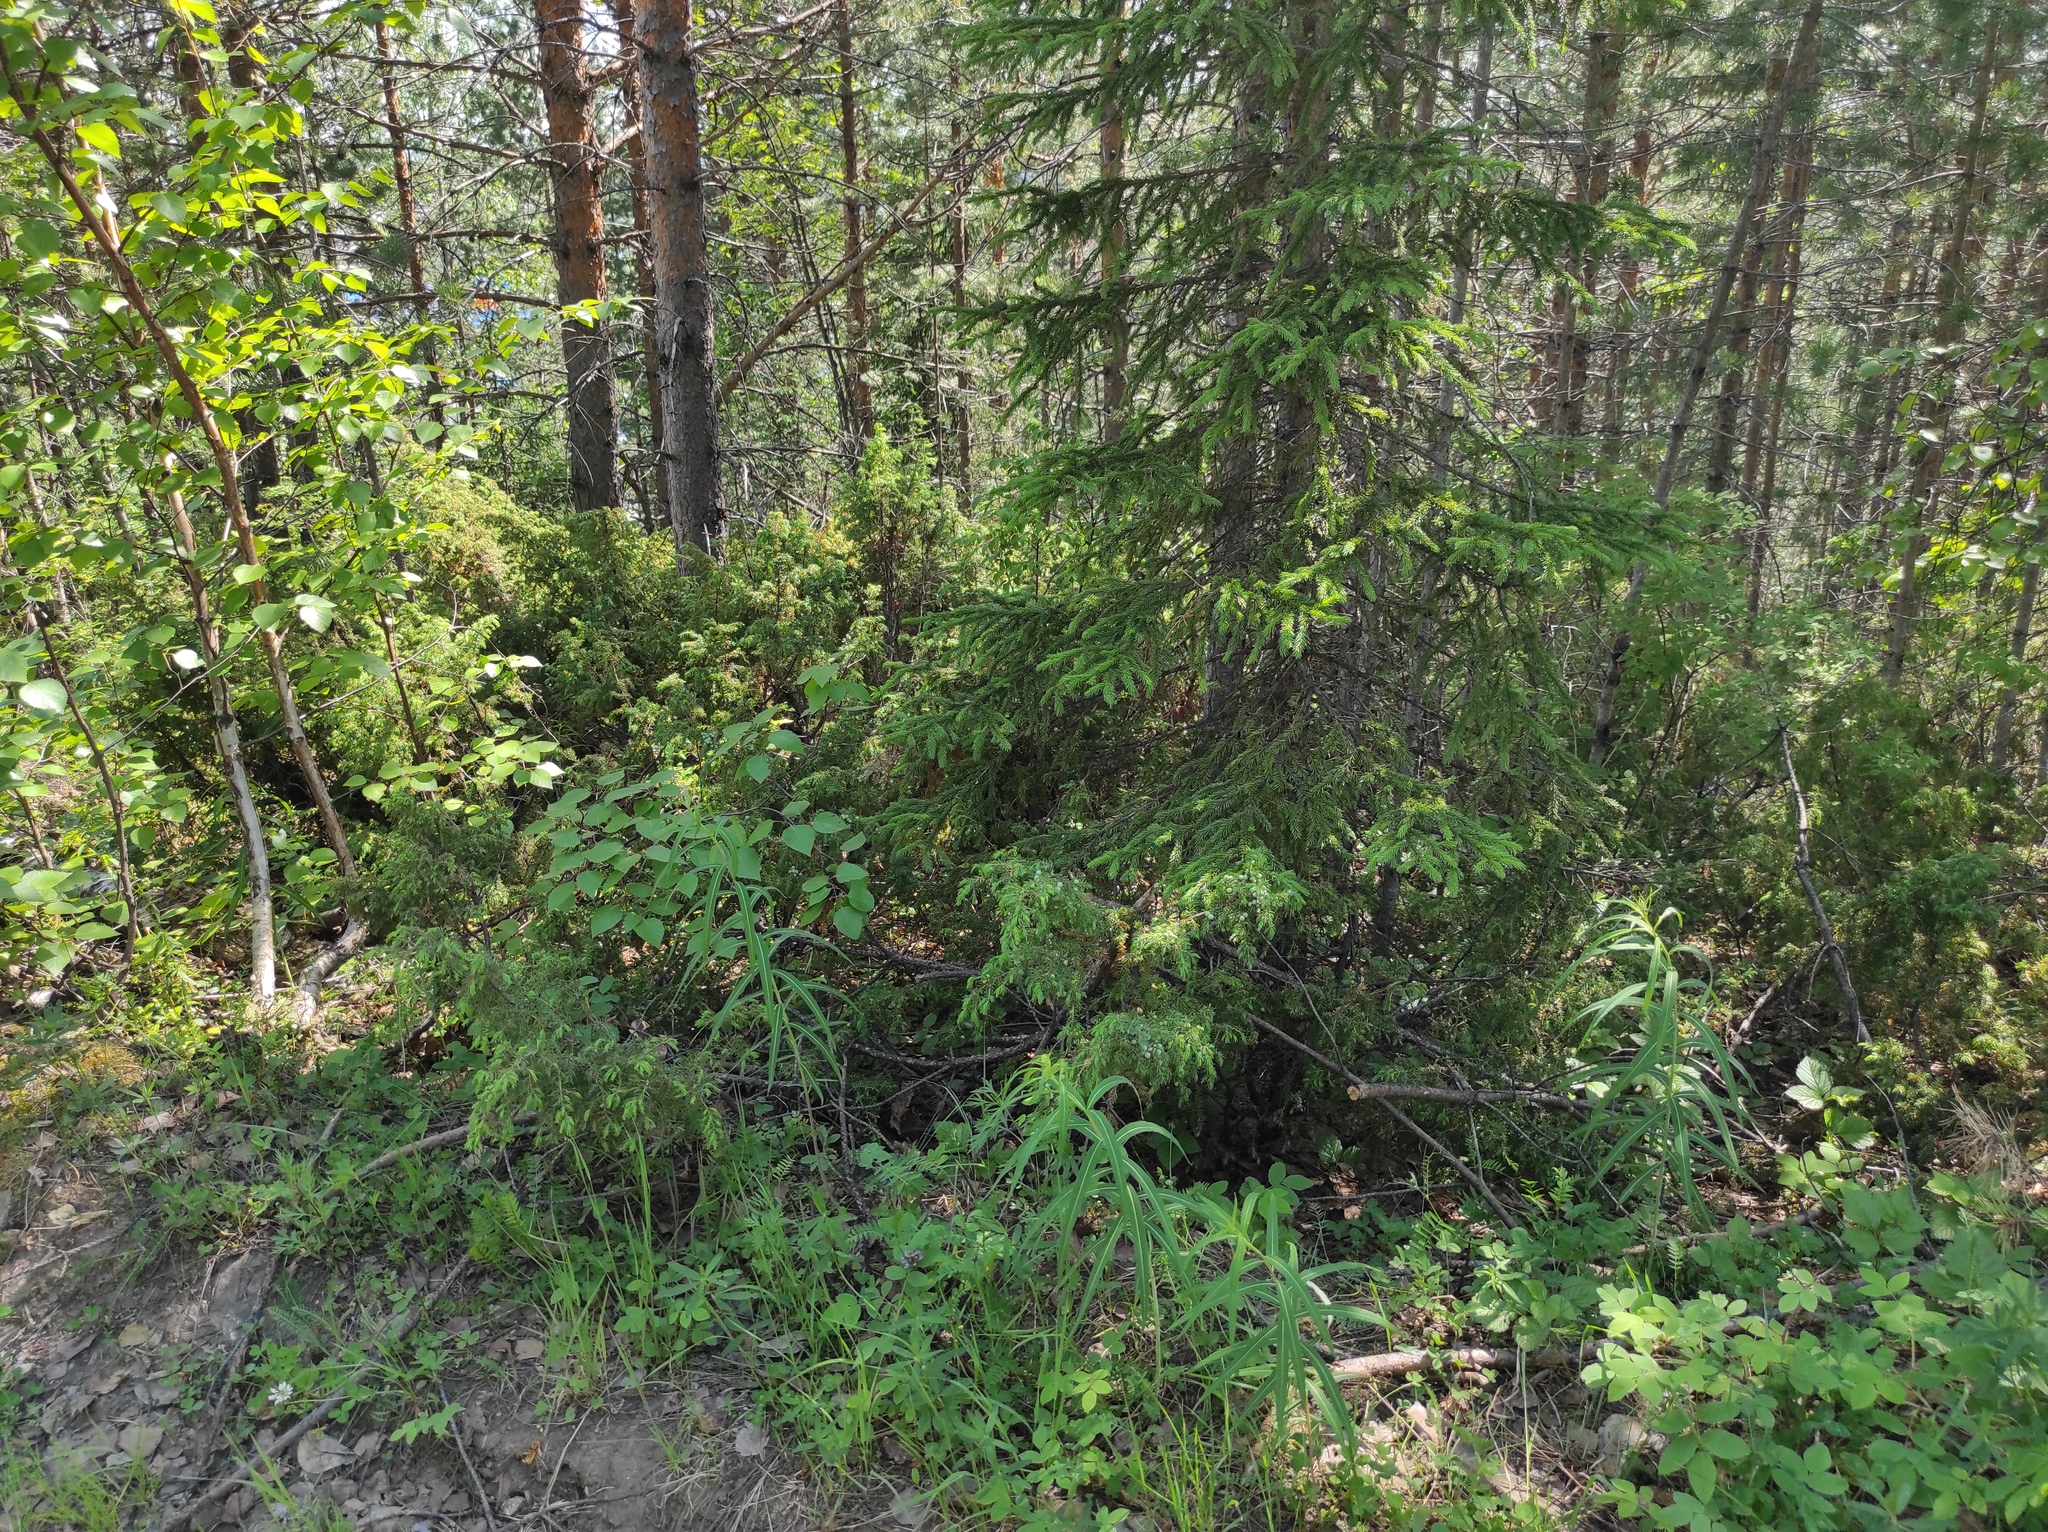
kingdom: Plantae
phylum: Tracheophyta
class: Pinopsida
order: Pinales
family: Cupressaceae
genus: Juniperus
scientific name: Juniperus communis
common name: Common juniper
